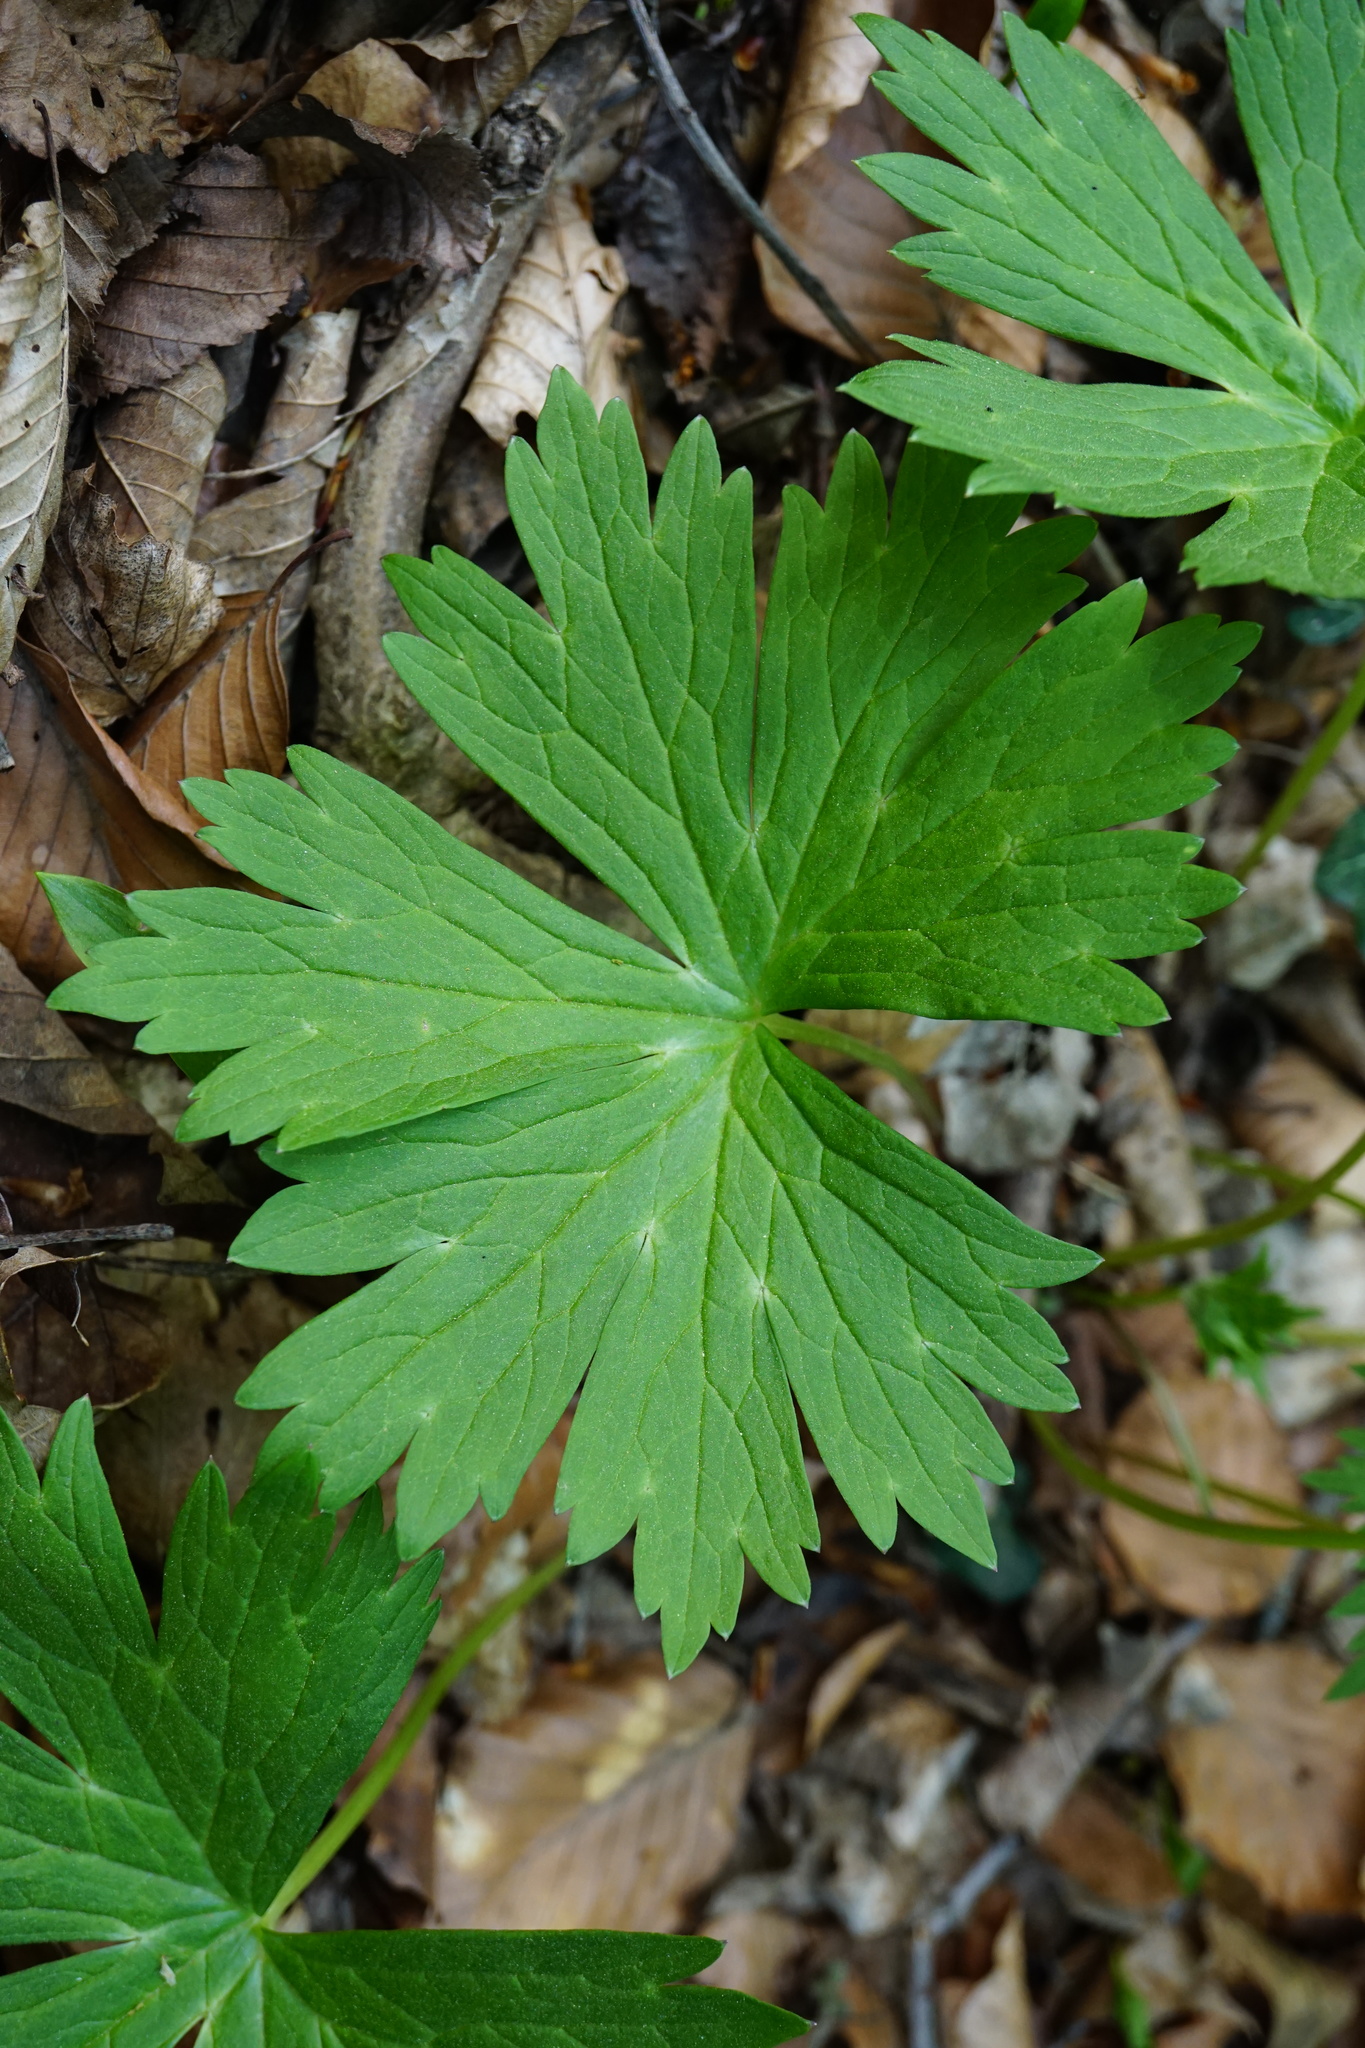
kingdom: Plantae
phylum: Tracheophyta
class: Magnoliopsida
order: Ranunculales
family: Ranunculaceae
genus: Aconitum
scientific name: Aconitum lycoctonum
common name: Wolf's-bane
